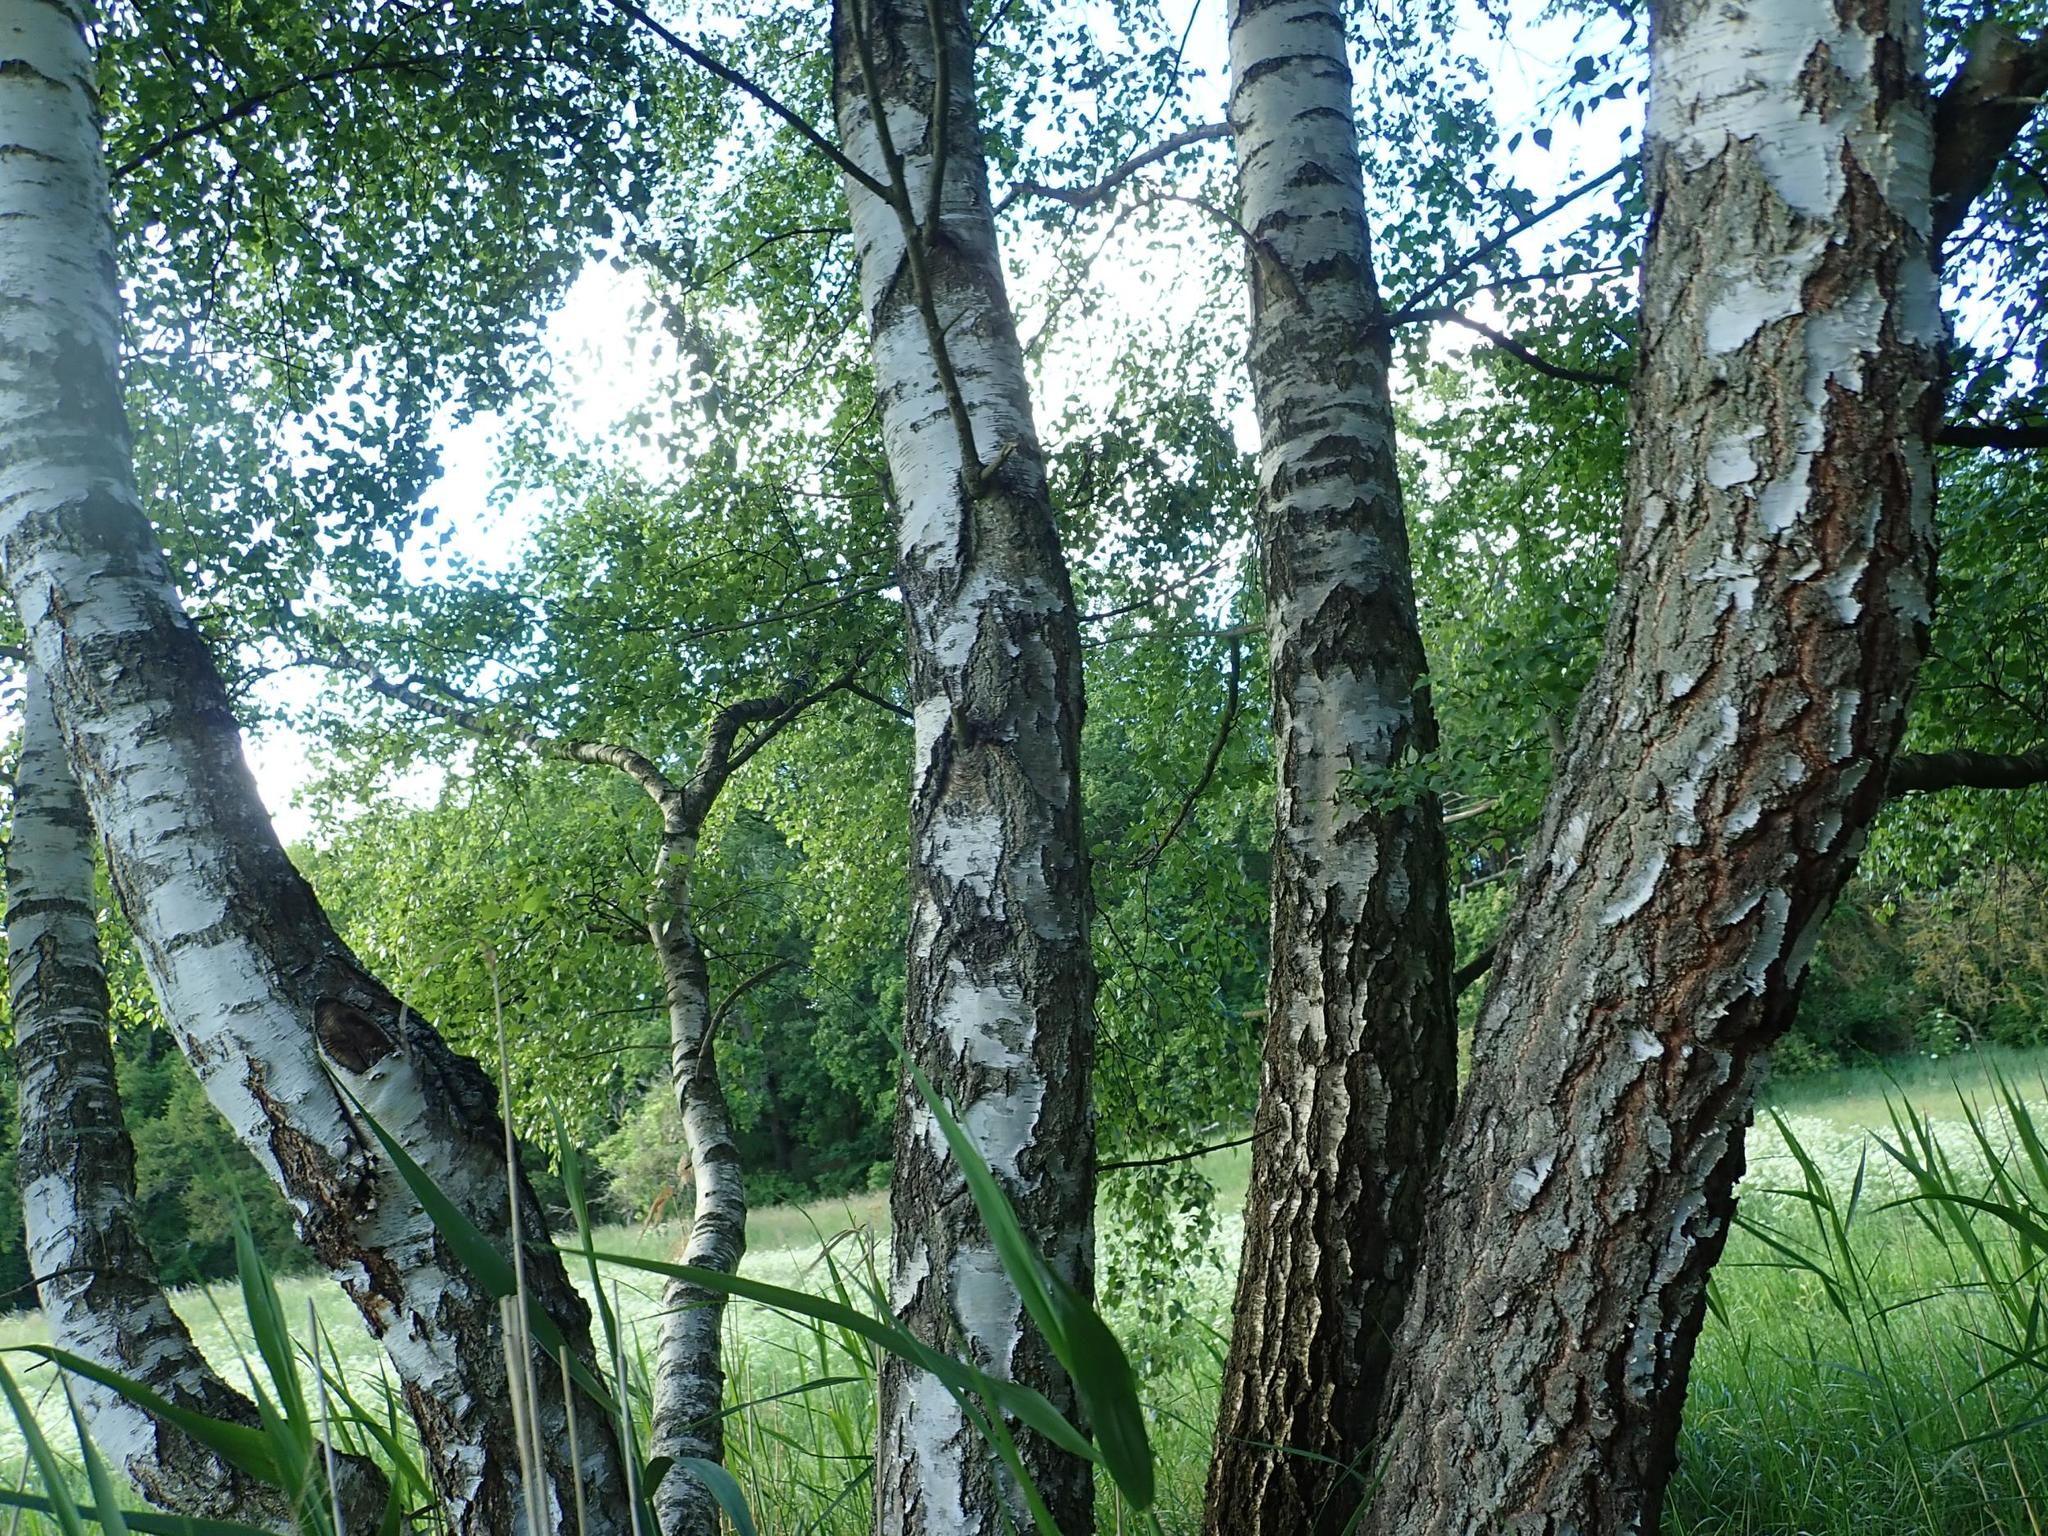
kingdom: Plantae
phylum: Tracheophyta
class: Magnoliopsida
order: Fagales
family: Betulaceae
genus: Betula
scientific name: Betula pendula
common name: Silver birch
